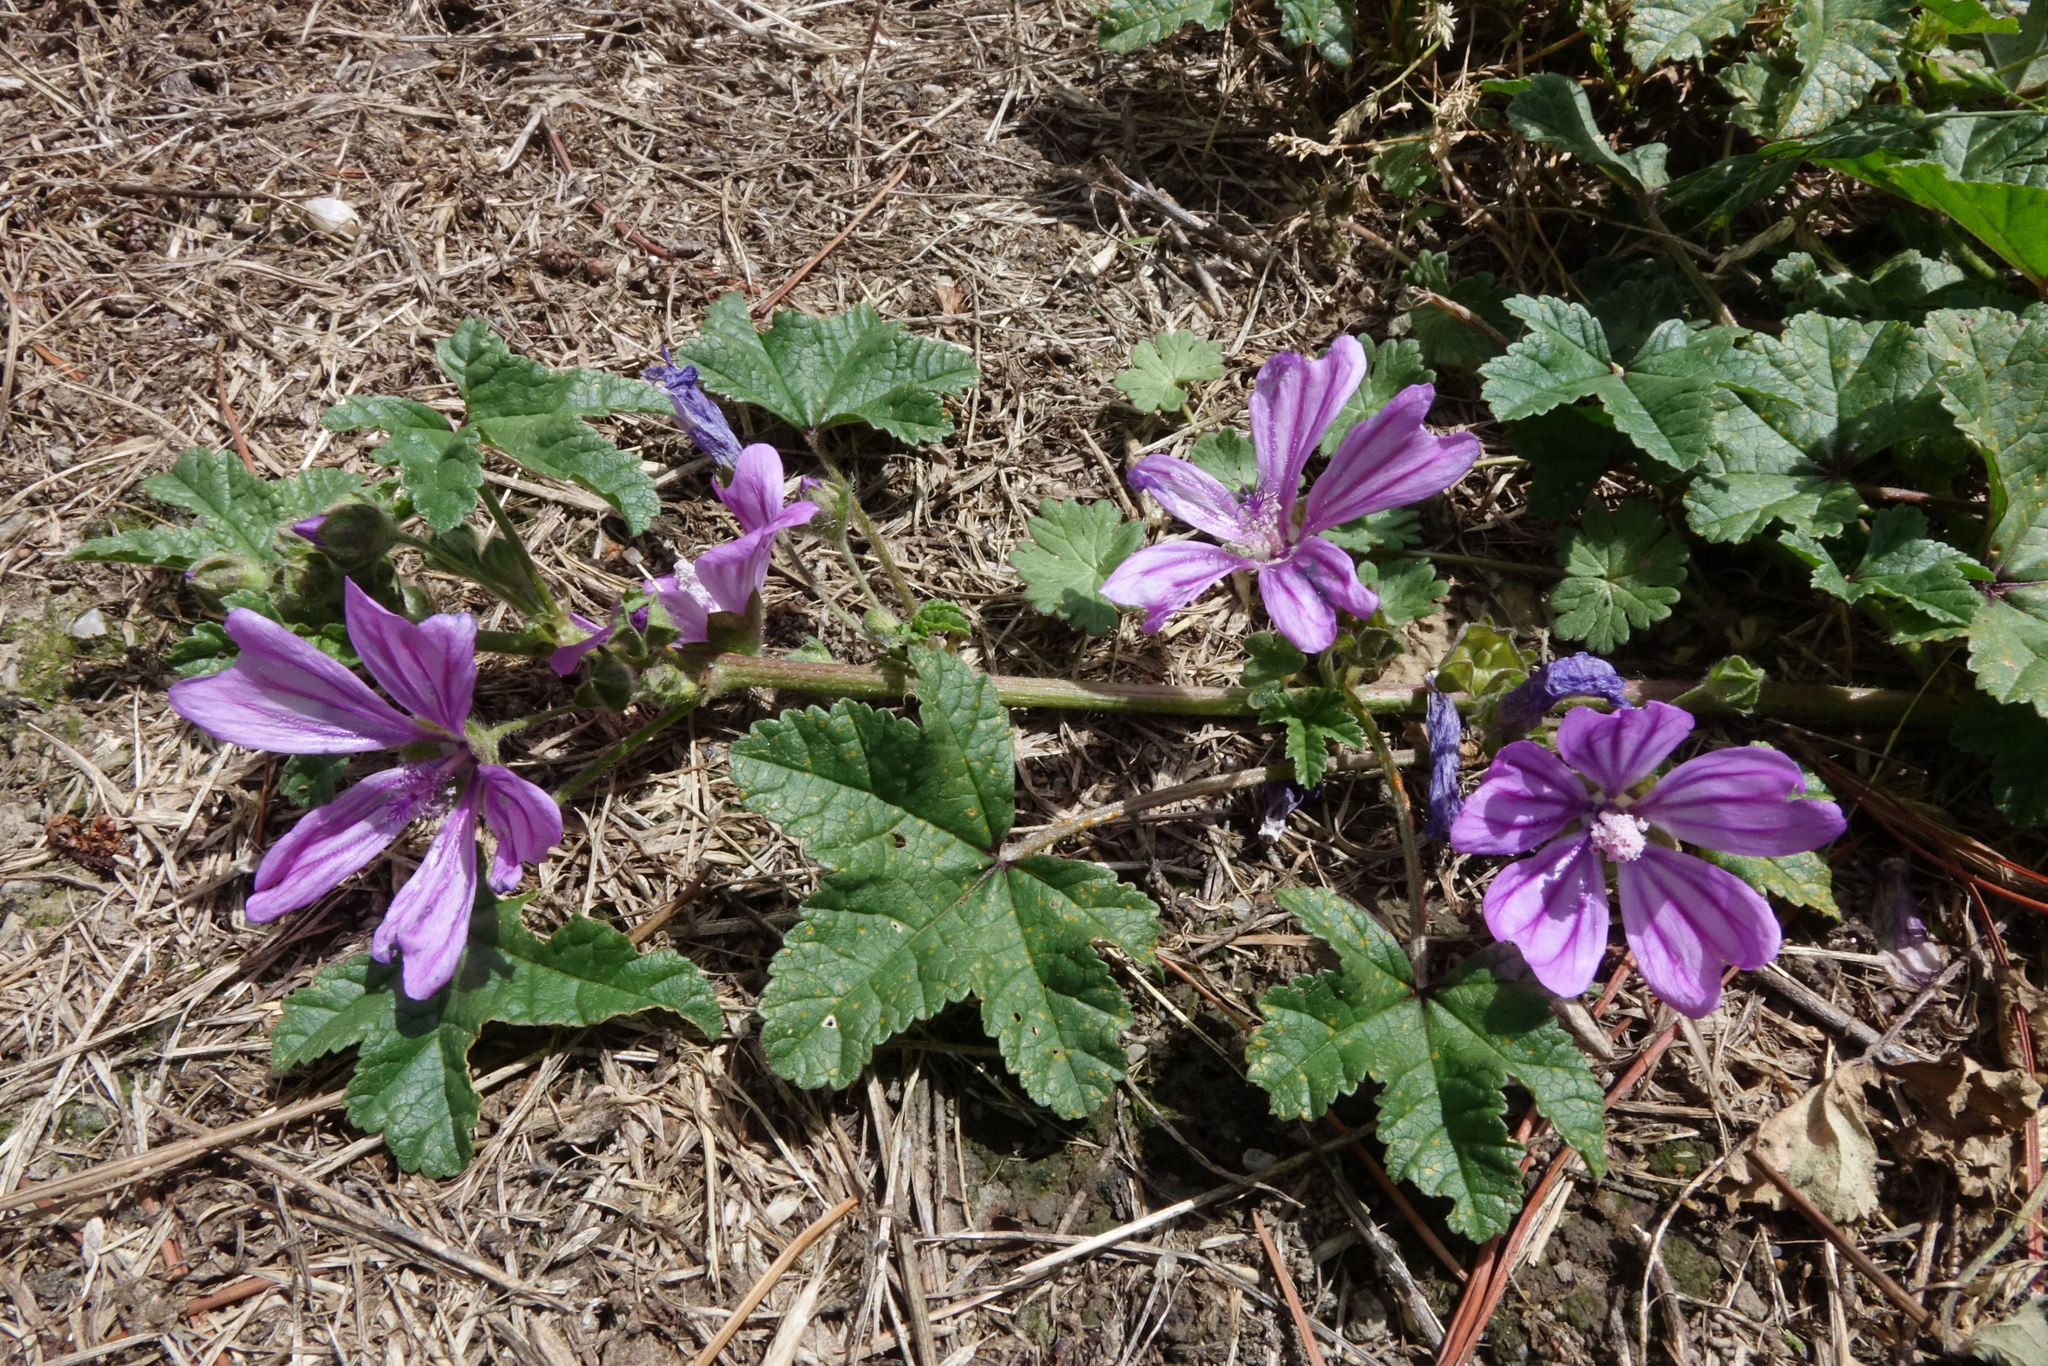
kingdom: Plantae
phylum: Tracheophyta
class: Magnoliopsida
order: Malvales
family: Malvaceae
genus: Malva
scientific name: Malva sylvestris
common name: Common mallow
